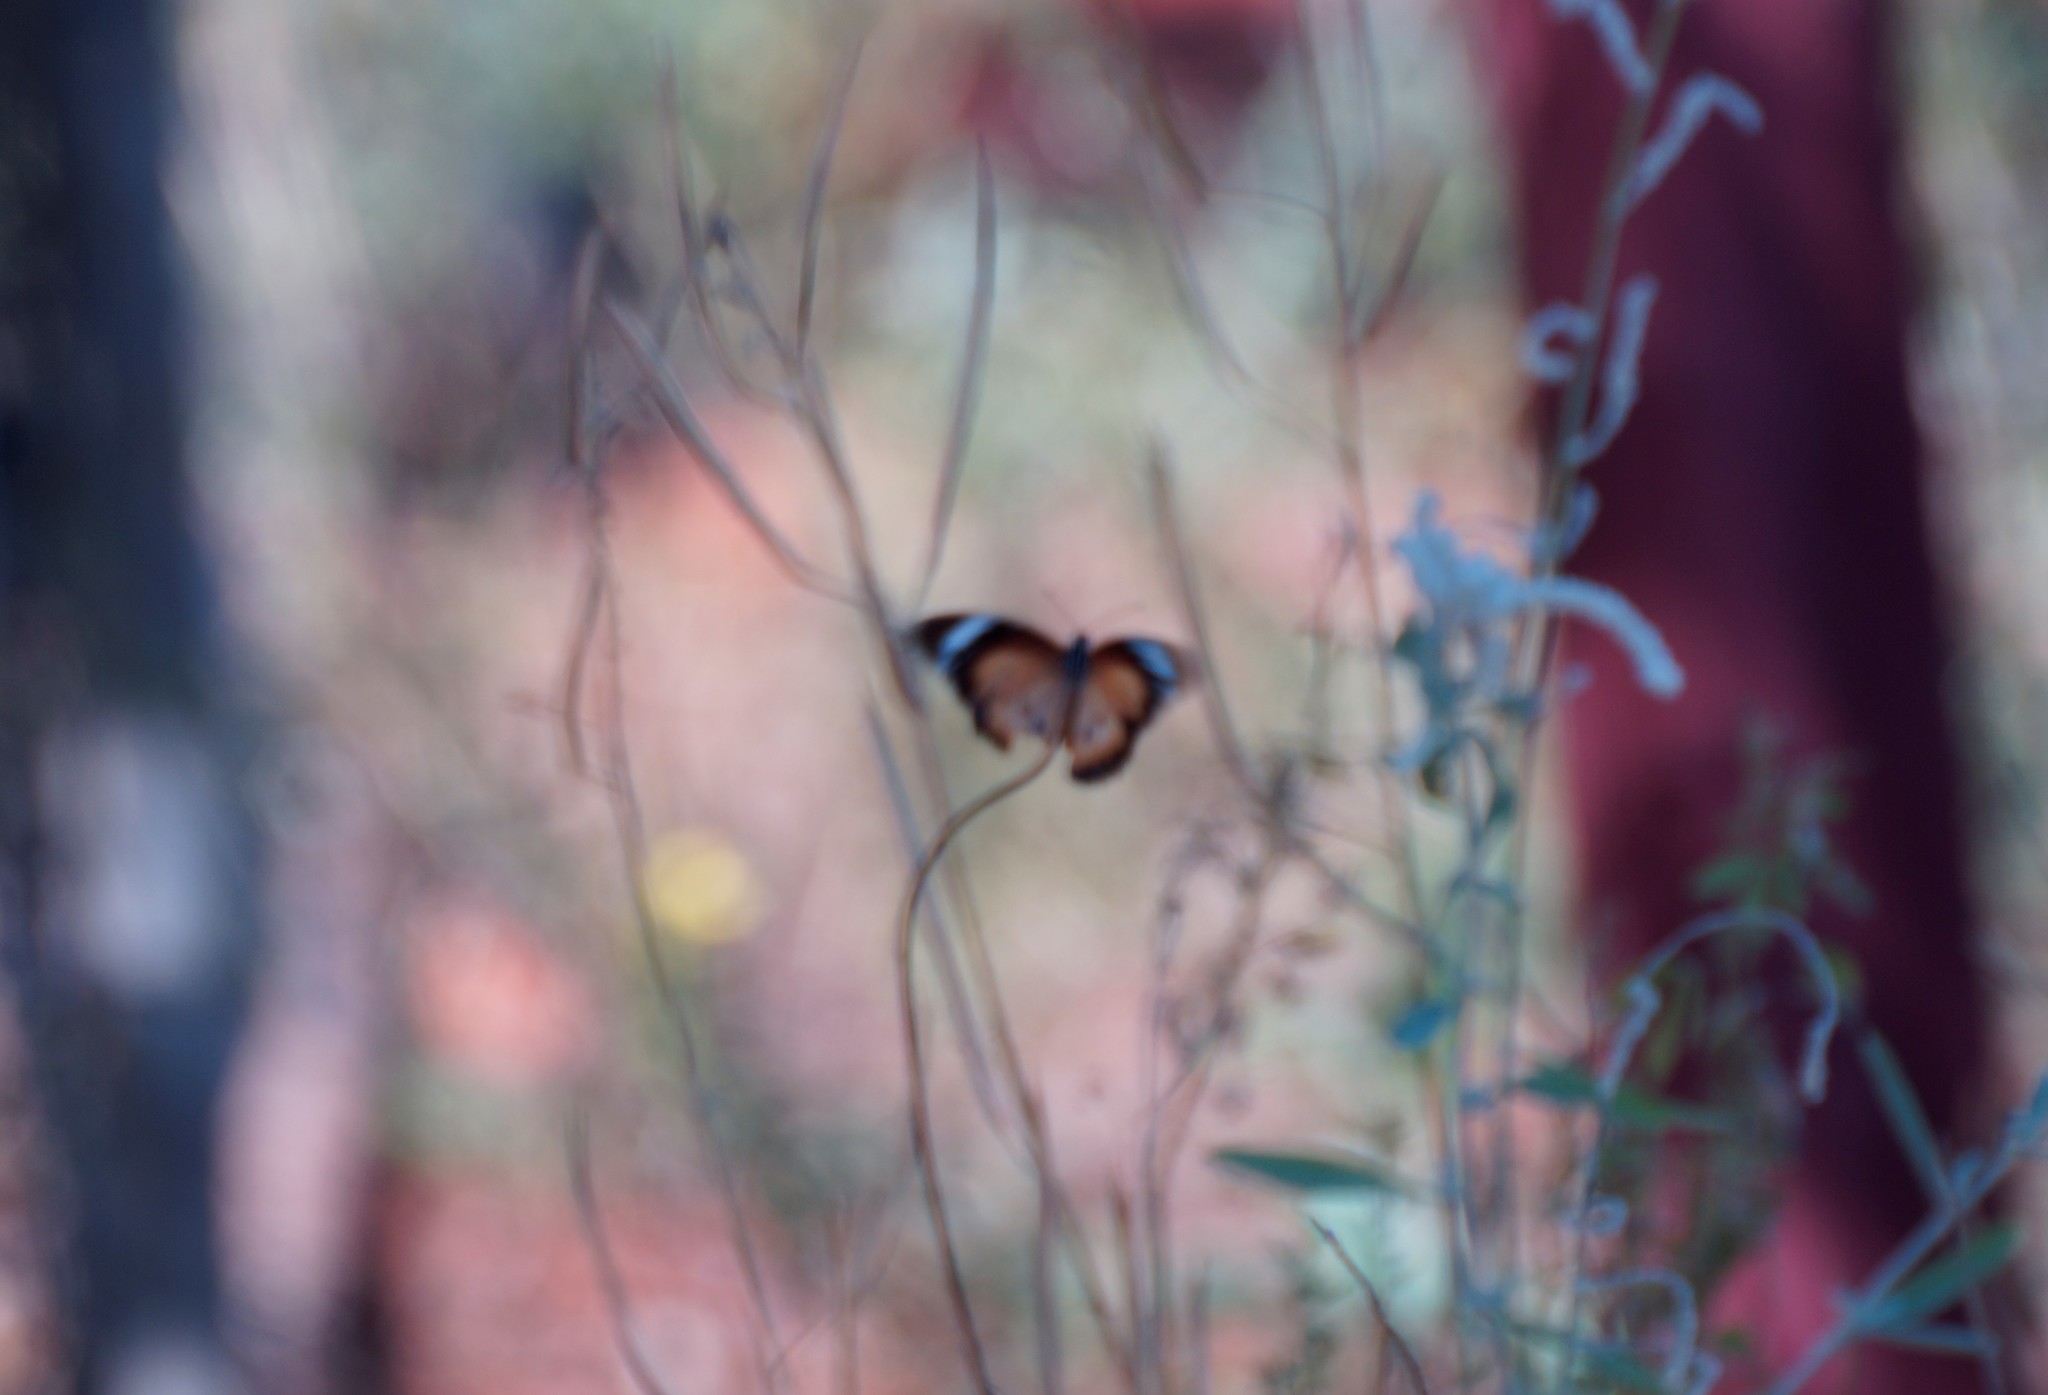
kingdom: Animalia
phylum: Arthropoda
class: Insecta
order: Lepidoptera
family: Nymphalidae
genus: Danaus
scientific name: Danaus chrysippus
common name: Plain tiger
